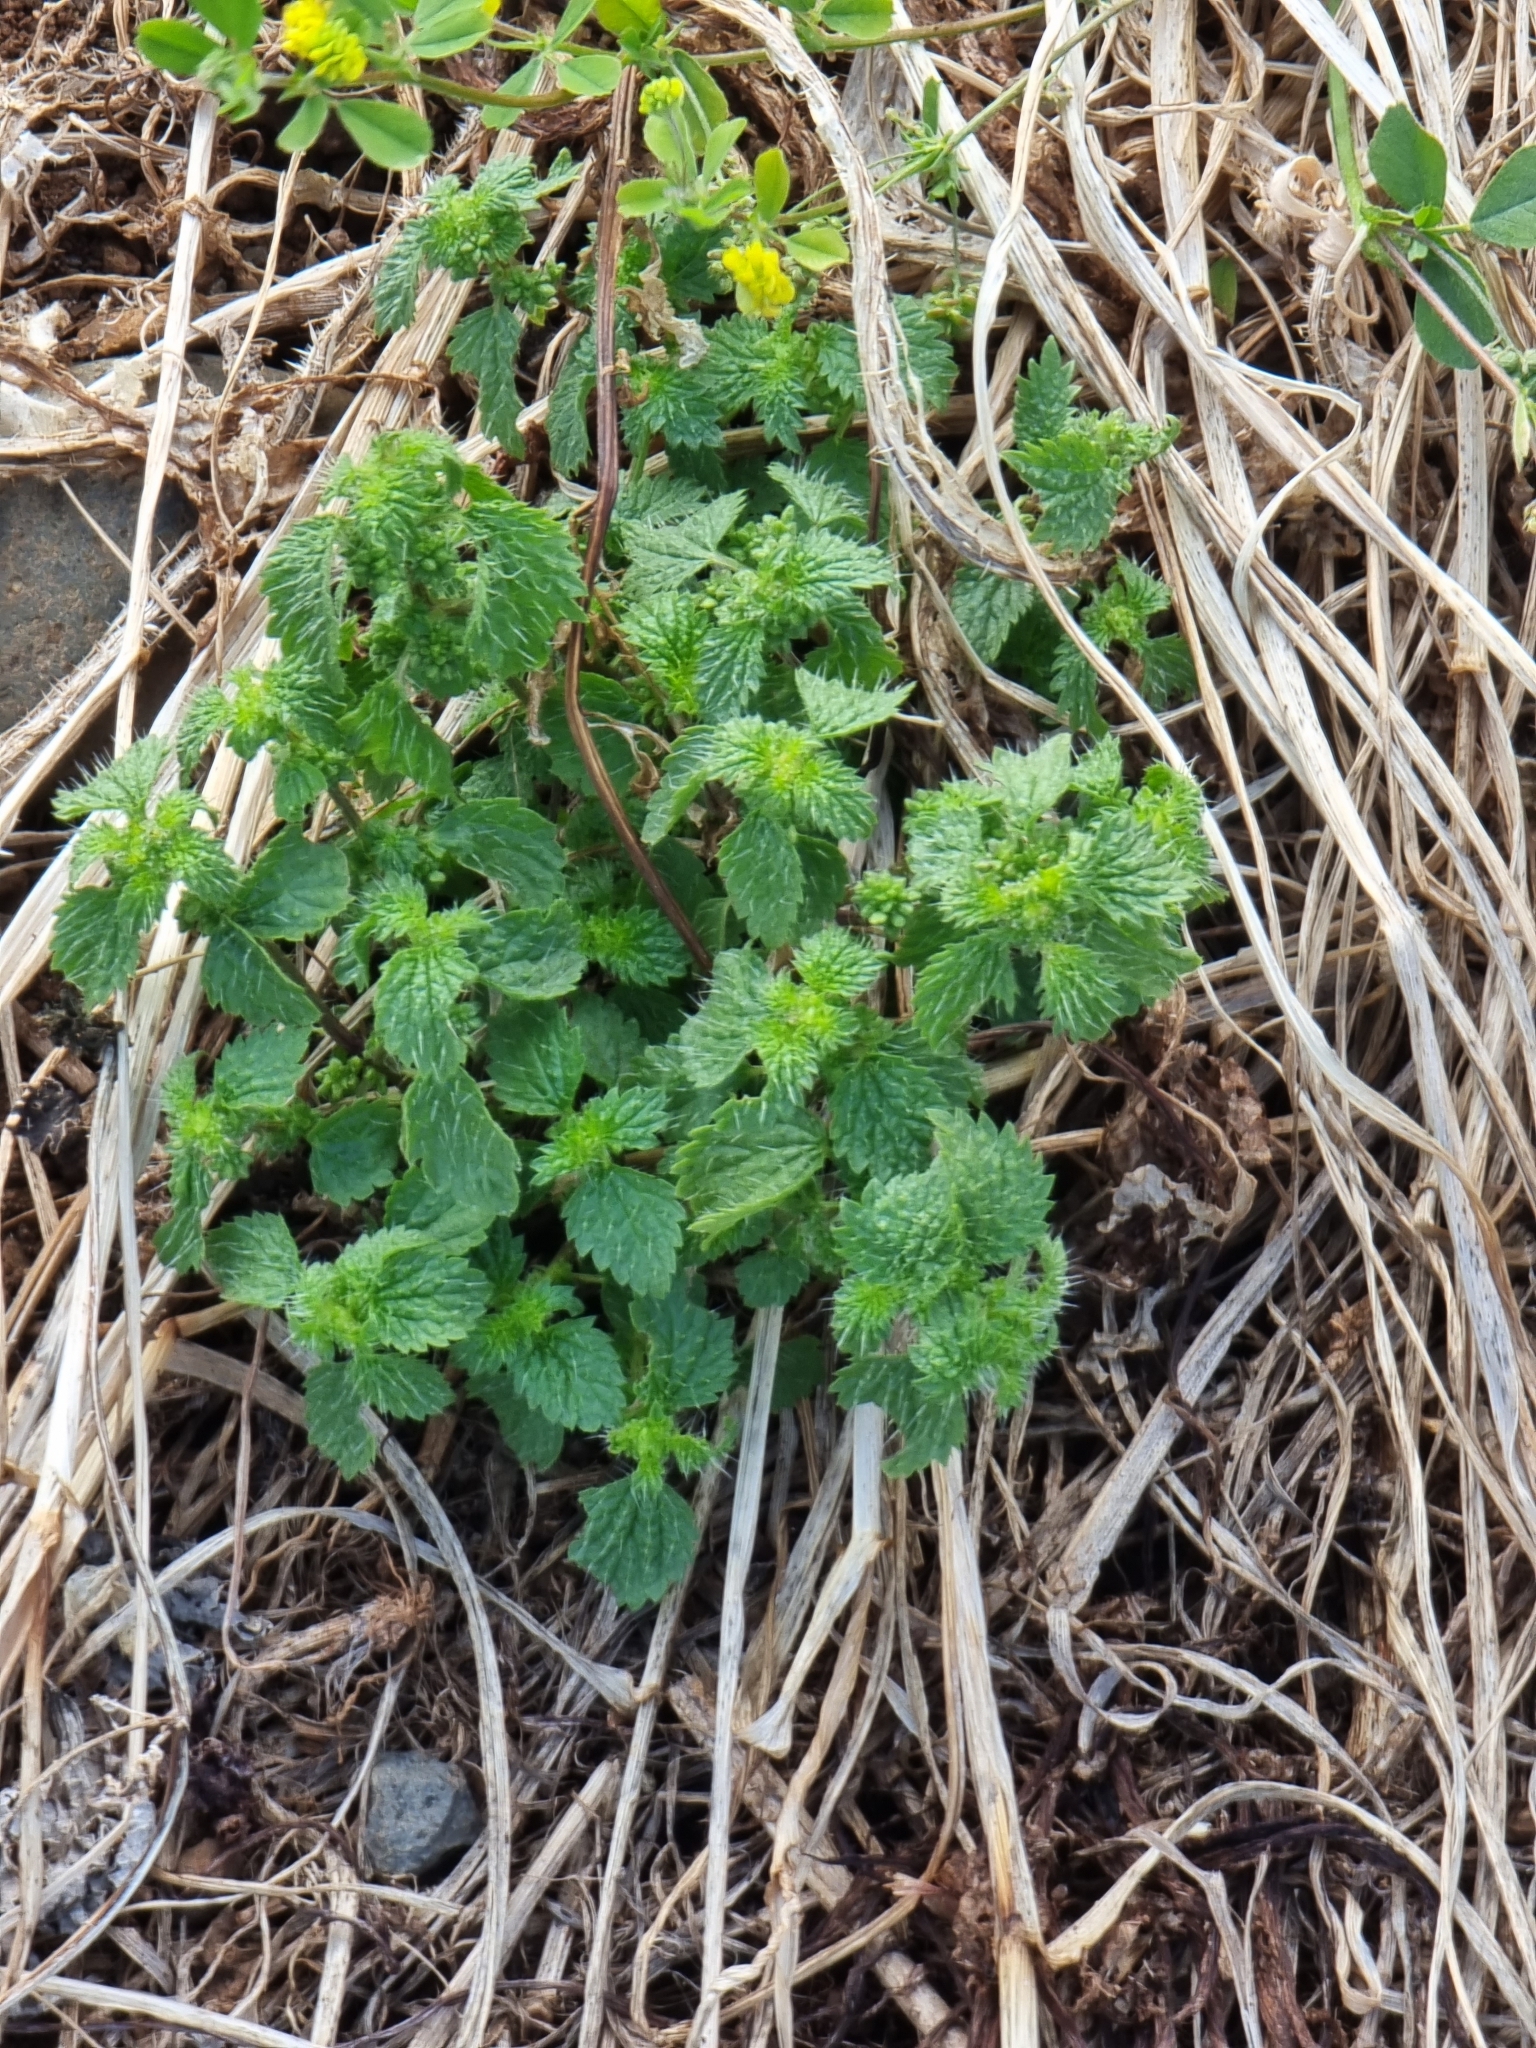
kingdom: Plantae
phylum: Tracheophyta
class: Magnoliopsida
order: Rosales
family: Urticaceae
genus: Urtica
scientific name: Urtica membranacea
